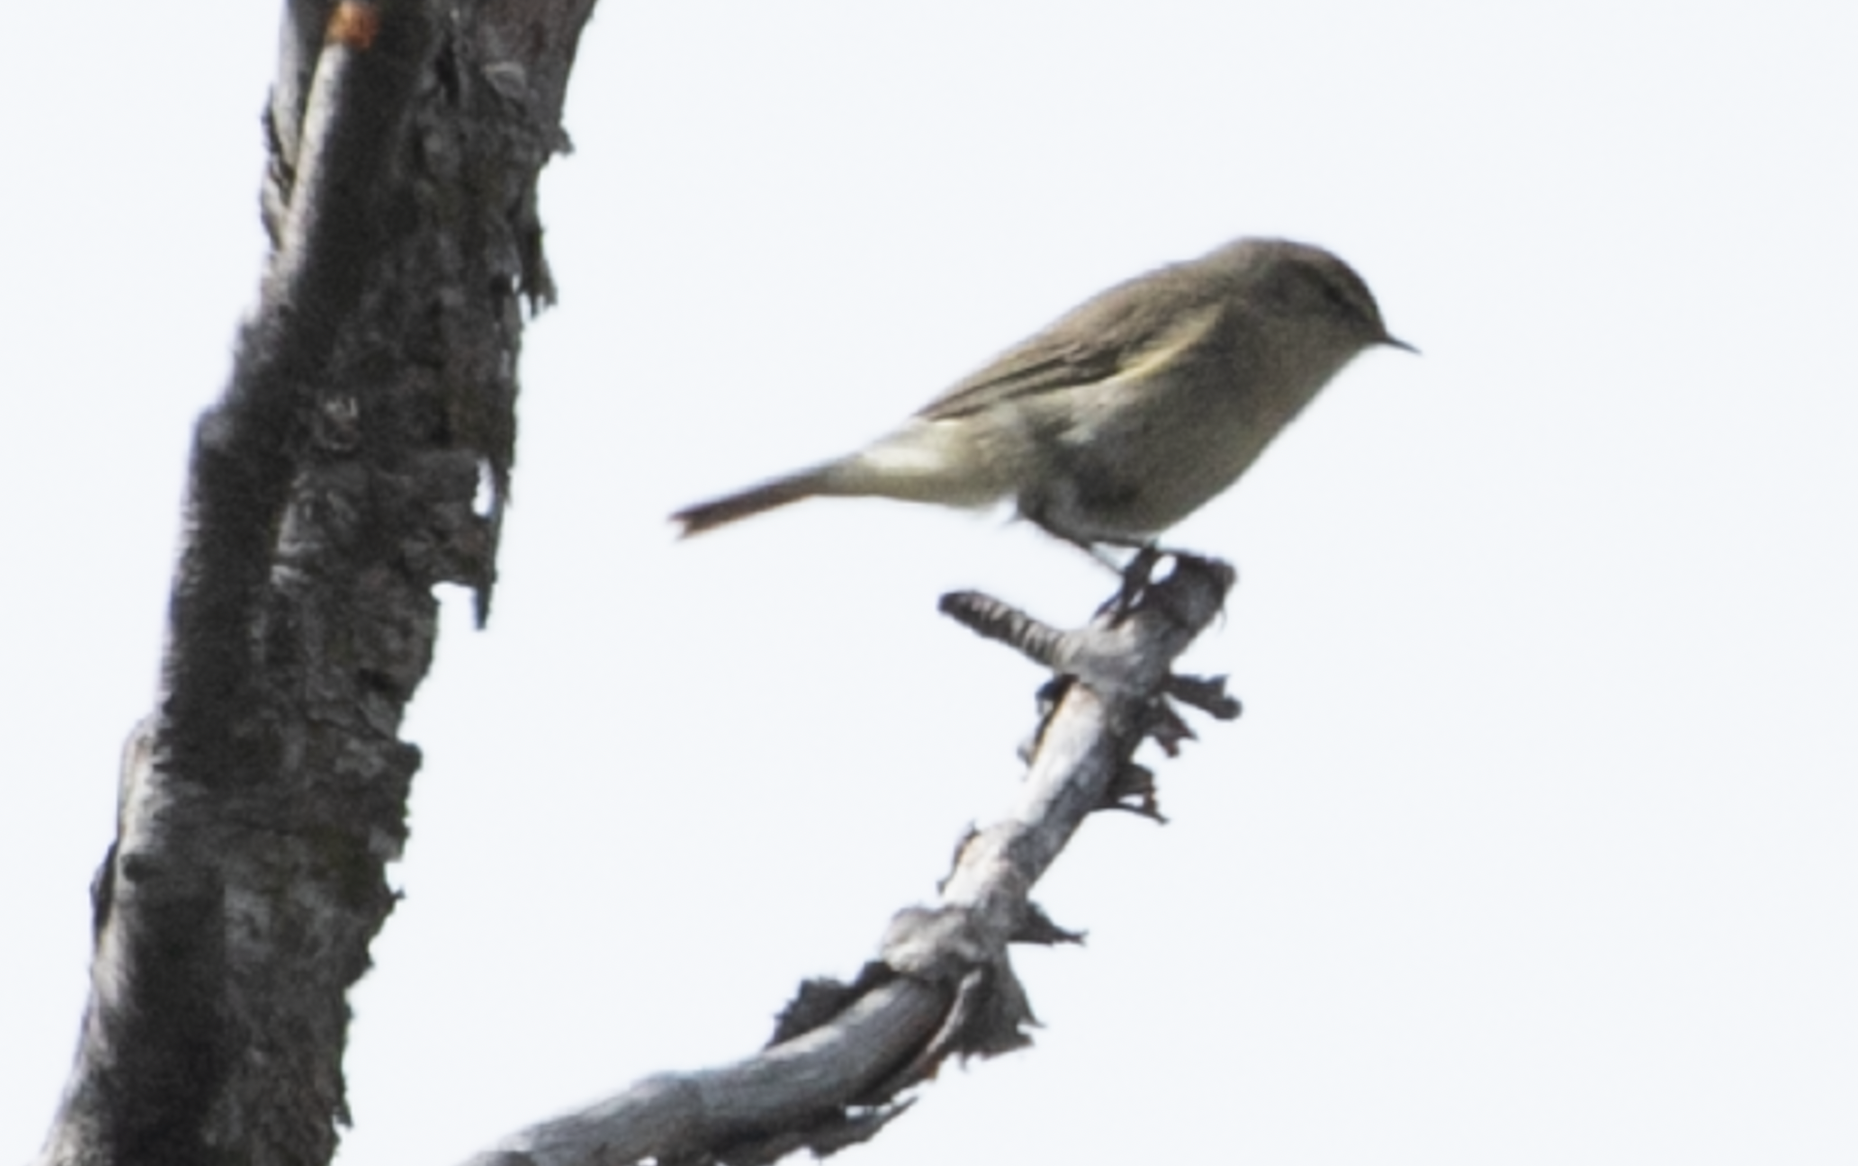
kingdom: Animalia
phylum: Chordata
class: Aves
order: Passeriformes
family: Phylloscopidae
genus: Phylloscopus
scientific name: Phylloscopus collybita
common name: Common chiffchaff
